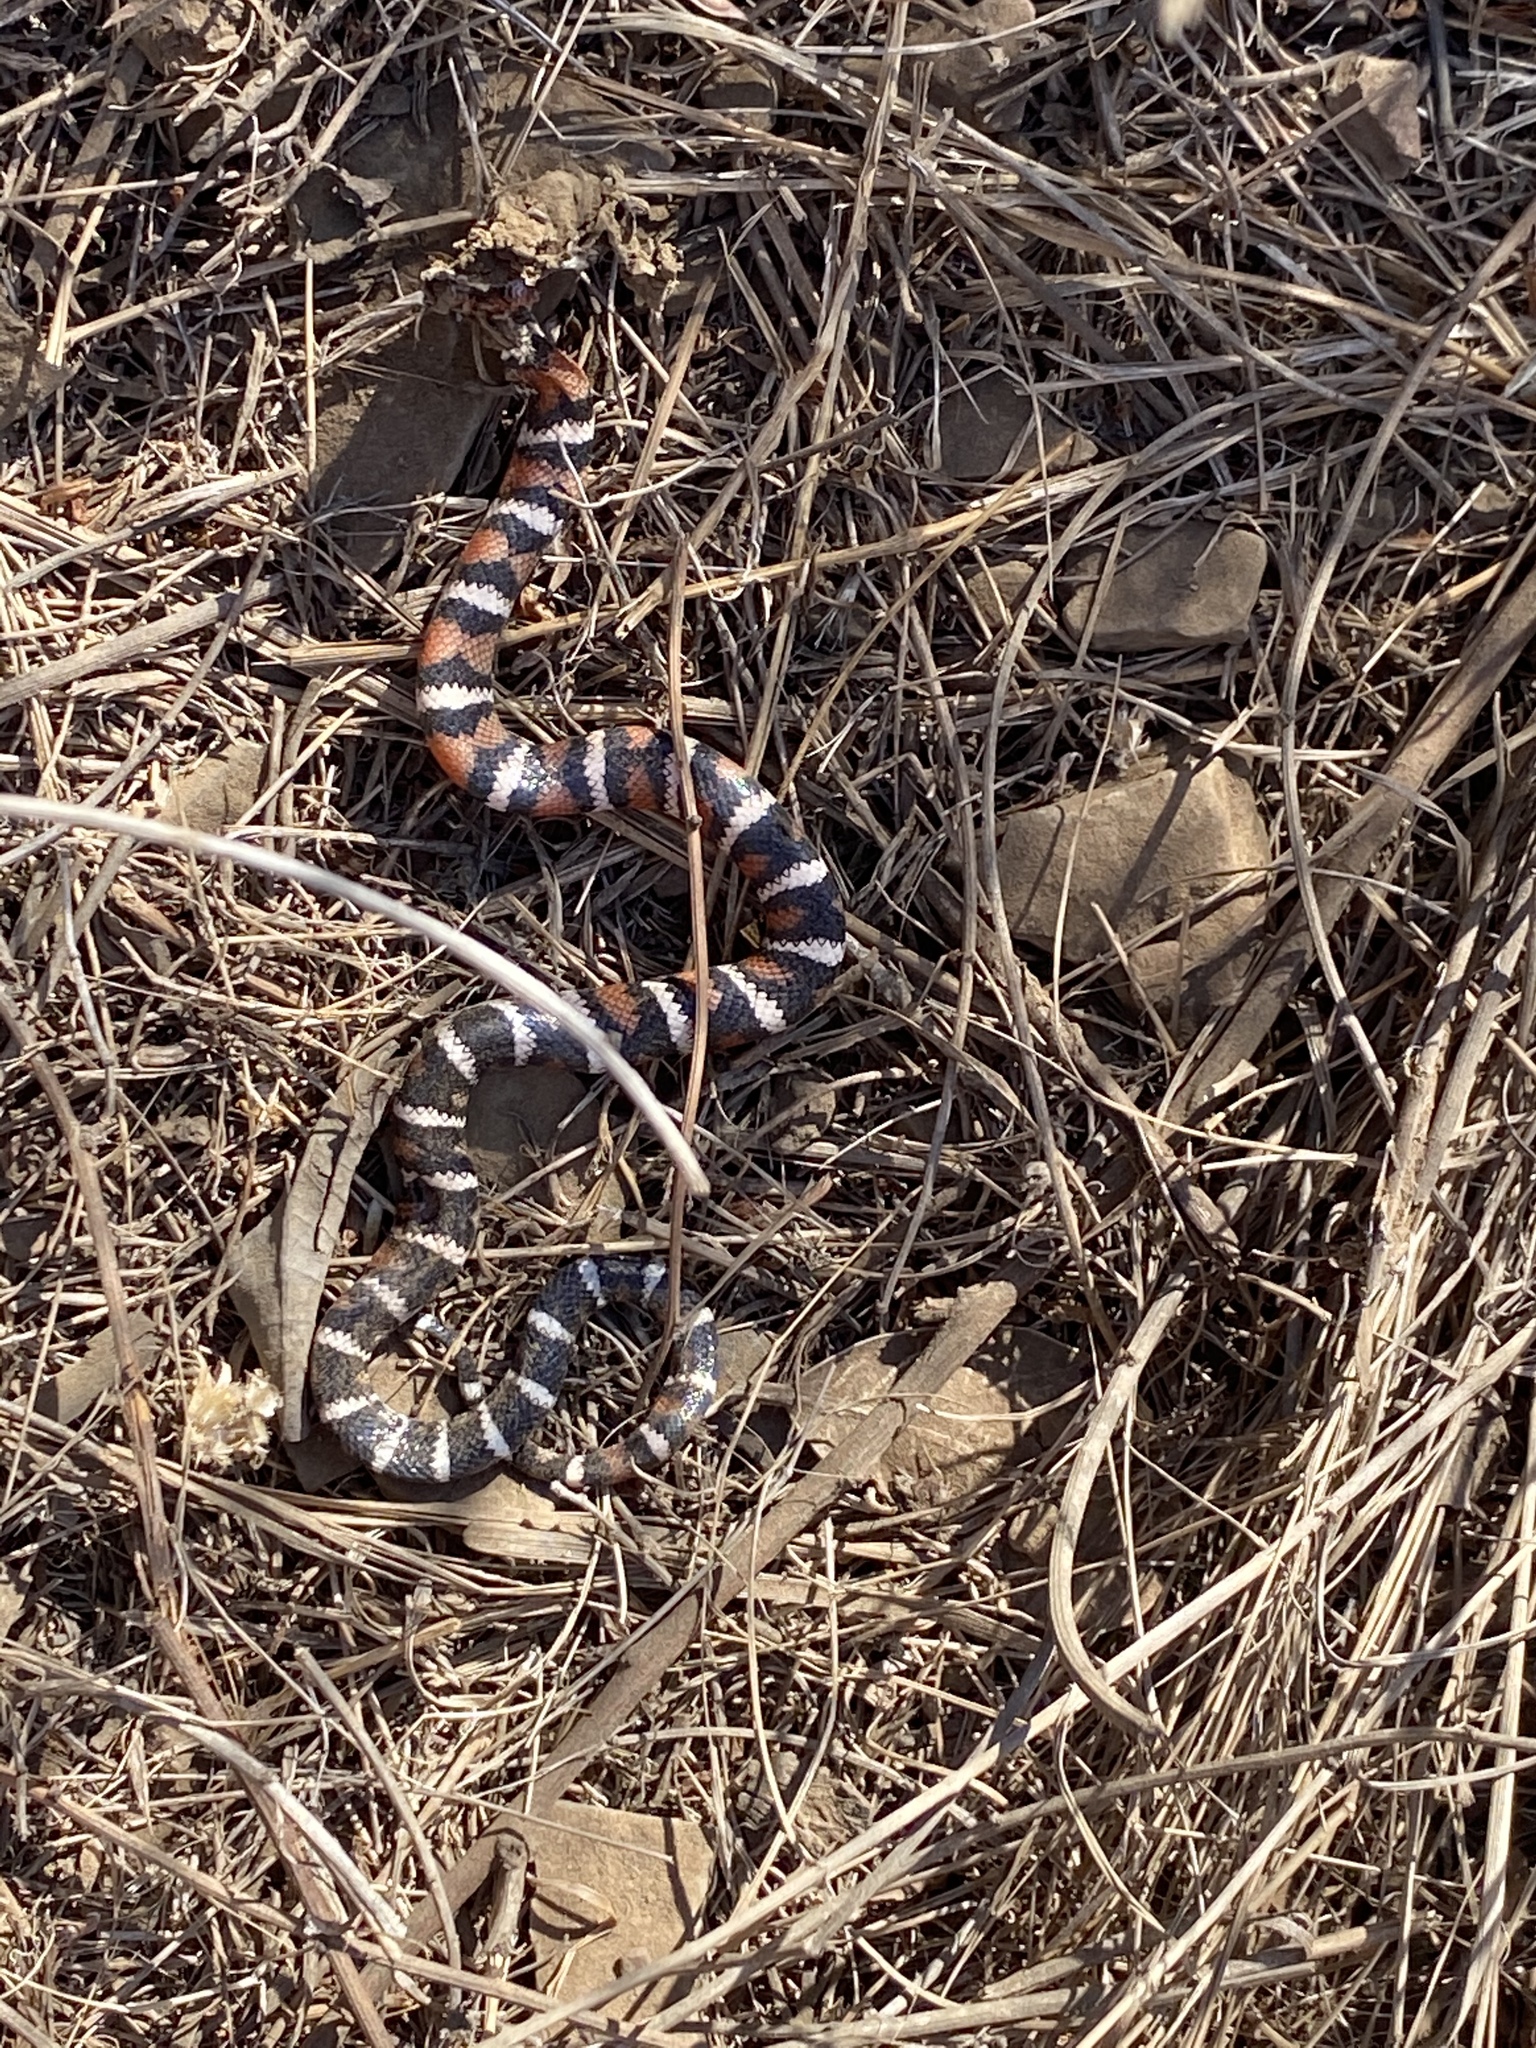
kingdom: Animalia
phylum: Chordata
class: Squamata
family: Colubridae
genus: Lampropeltis
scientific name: Lampropeltis zonata
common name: California mountain kingsnake
